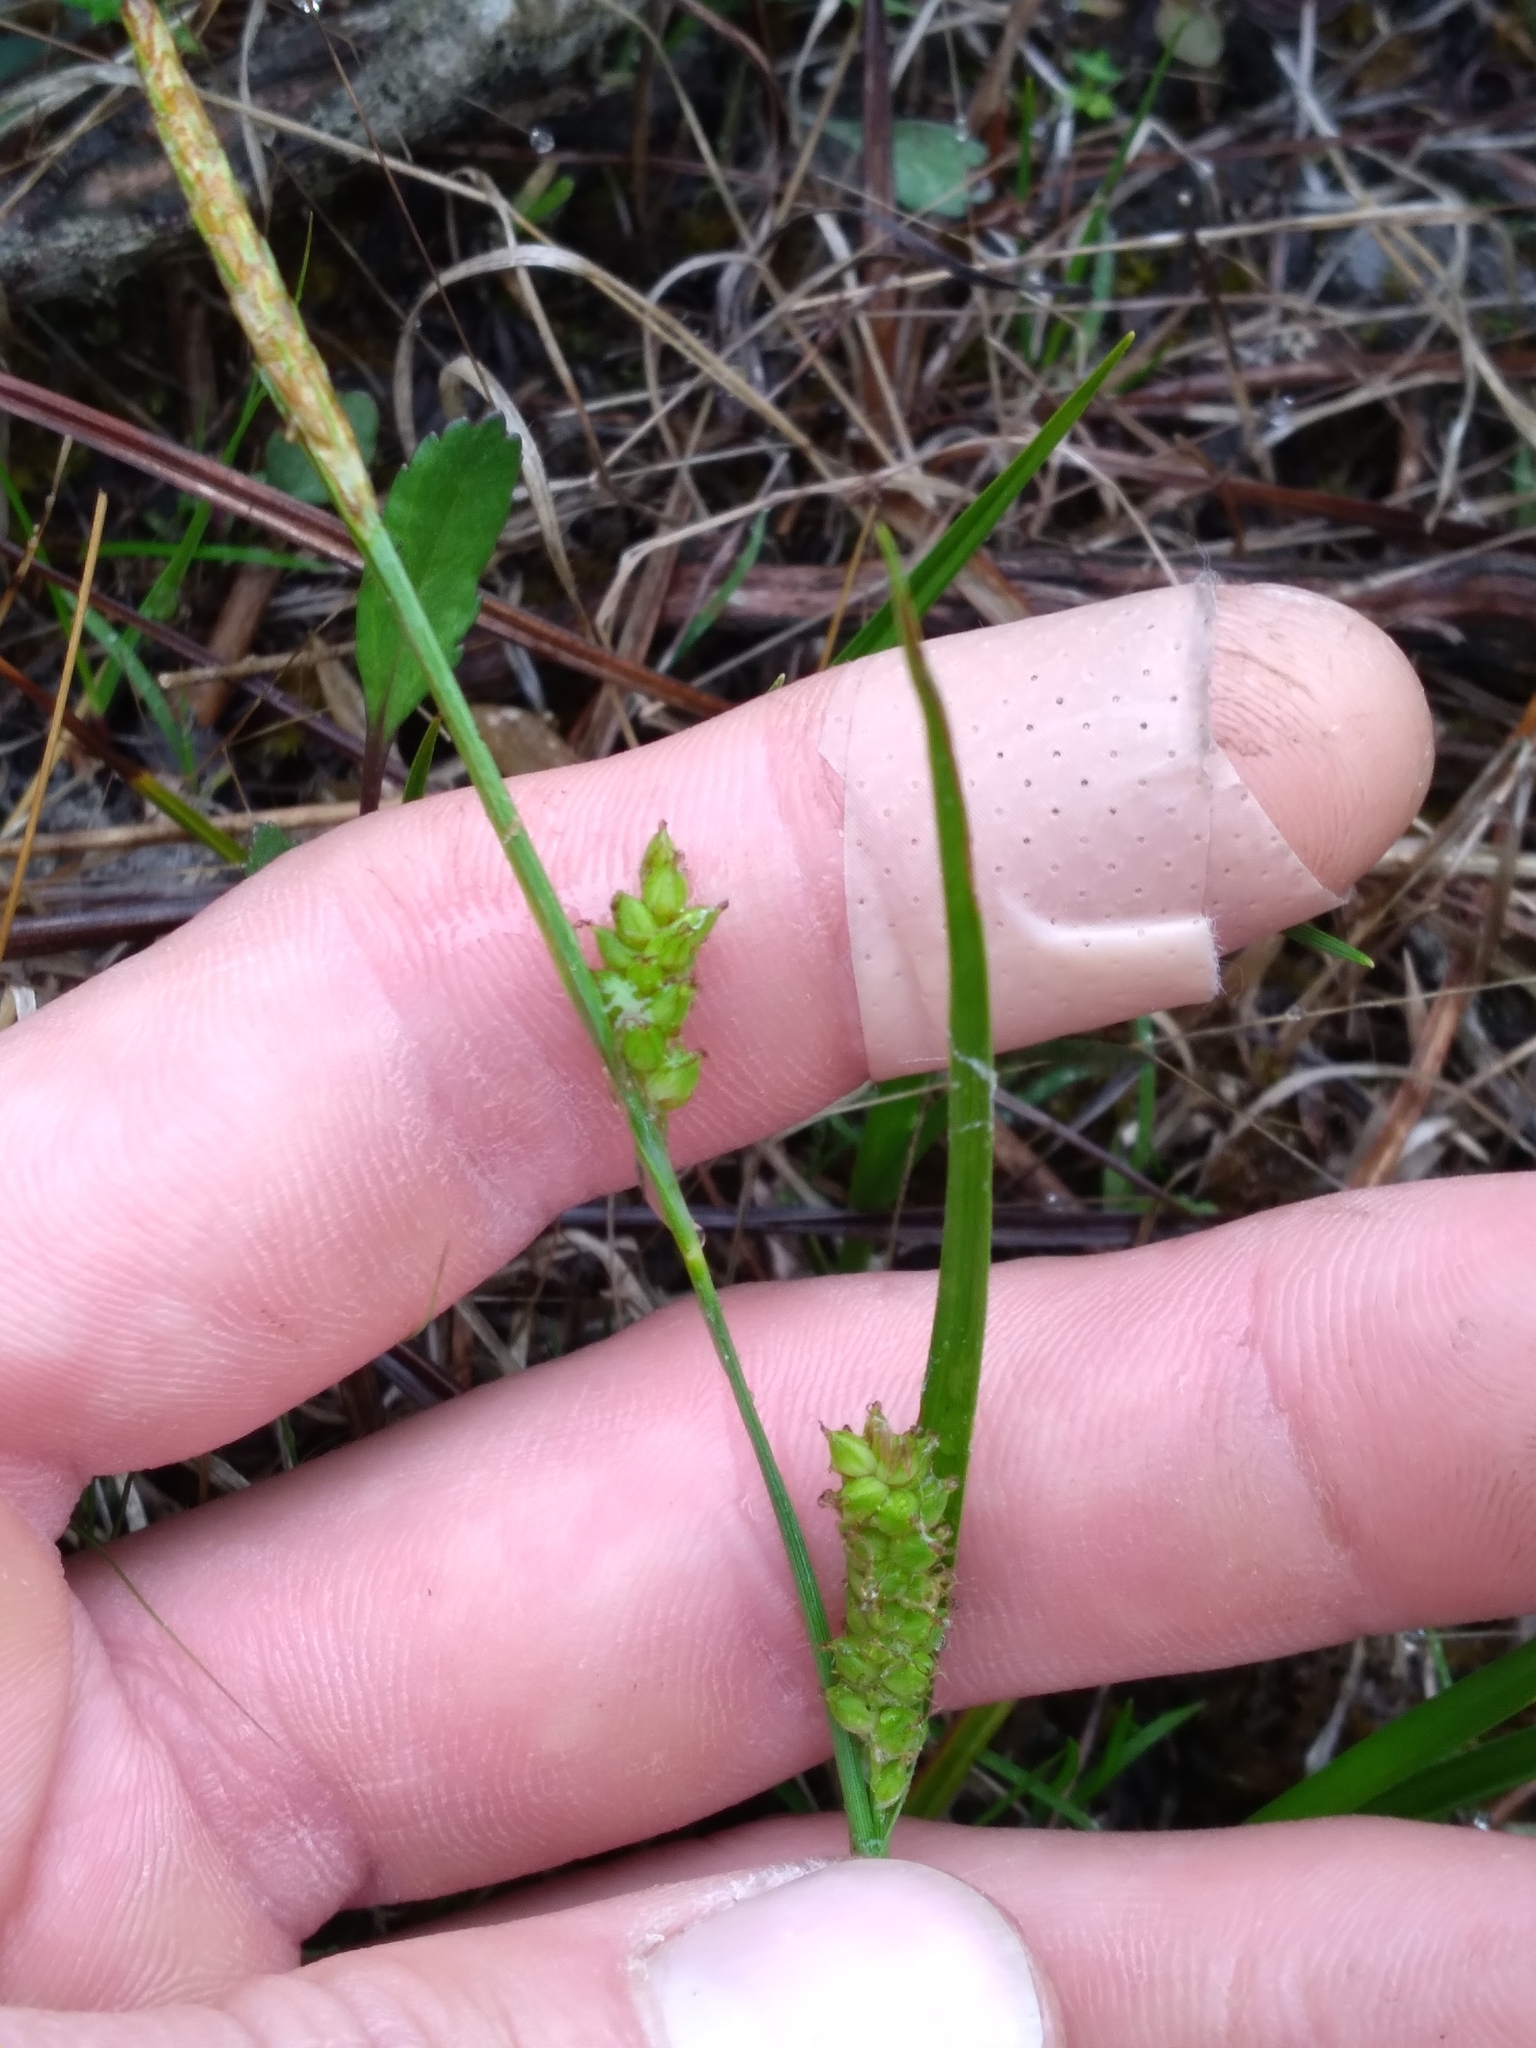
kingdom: Plantae
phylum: Tracheophyta
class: Liliopsida
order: Poales
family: Cyperaceae
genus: Carex
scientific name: Carex crawei
